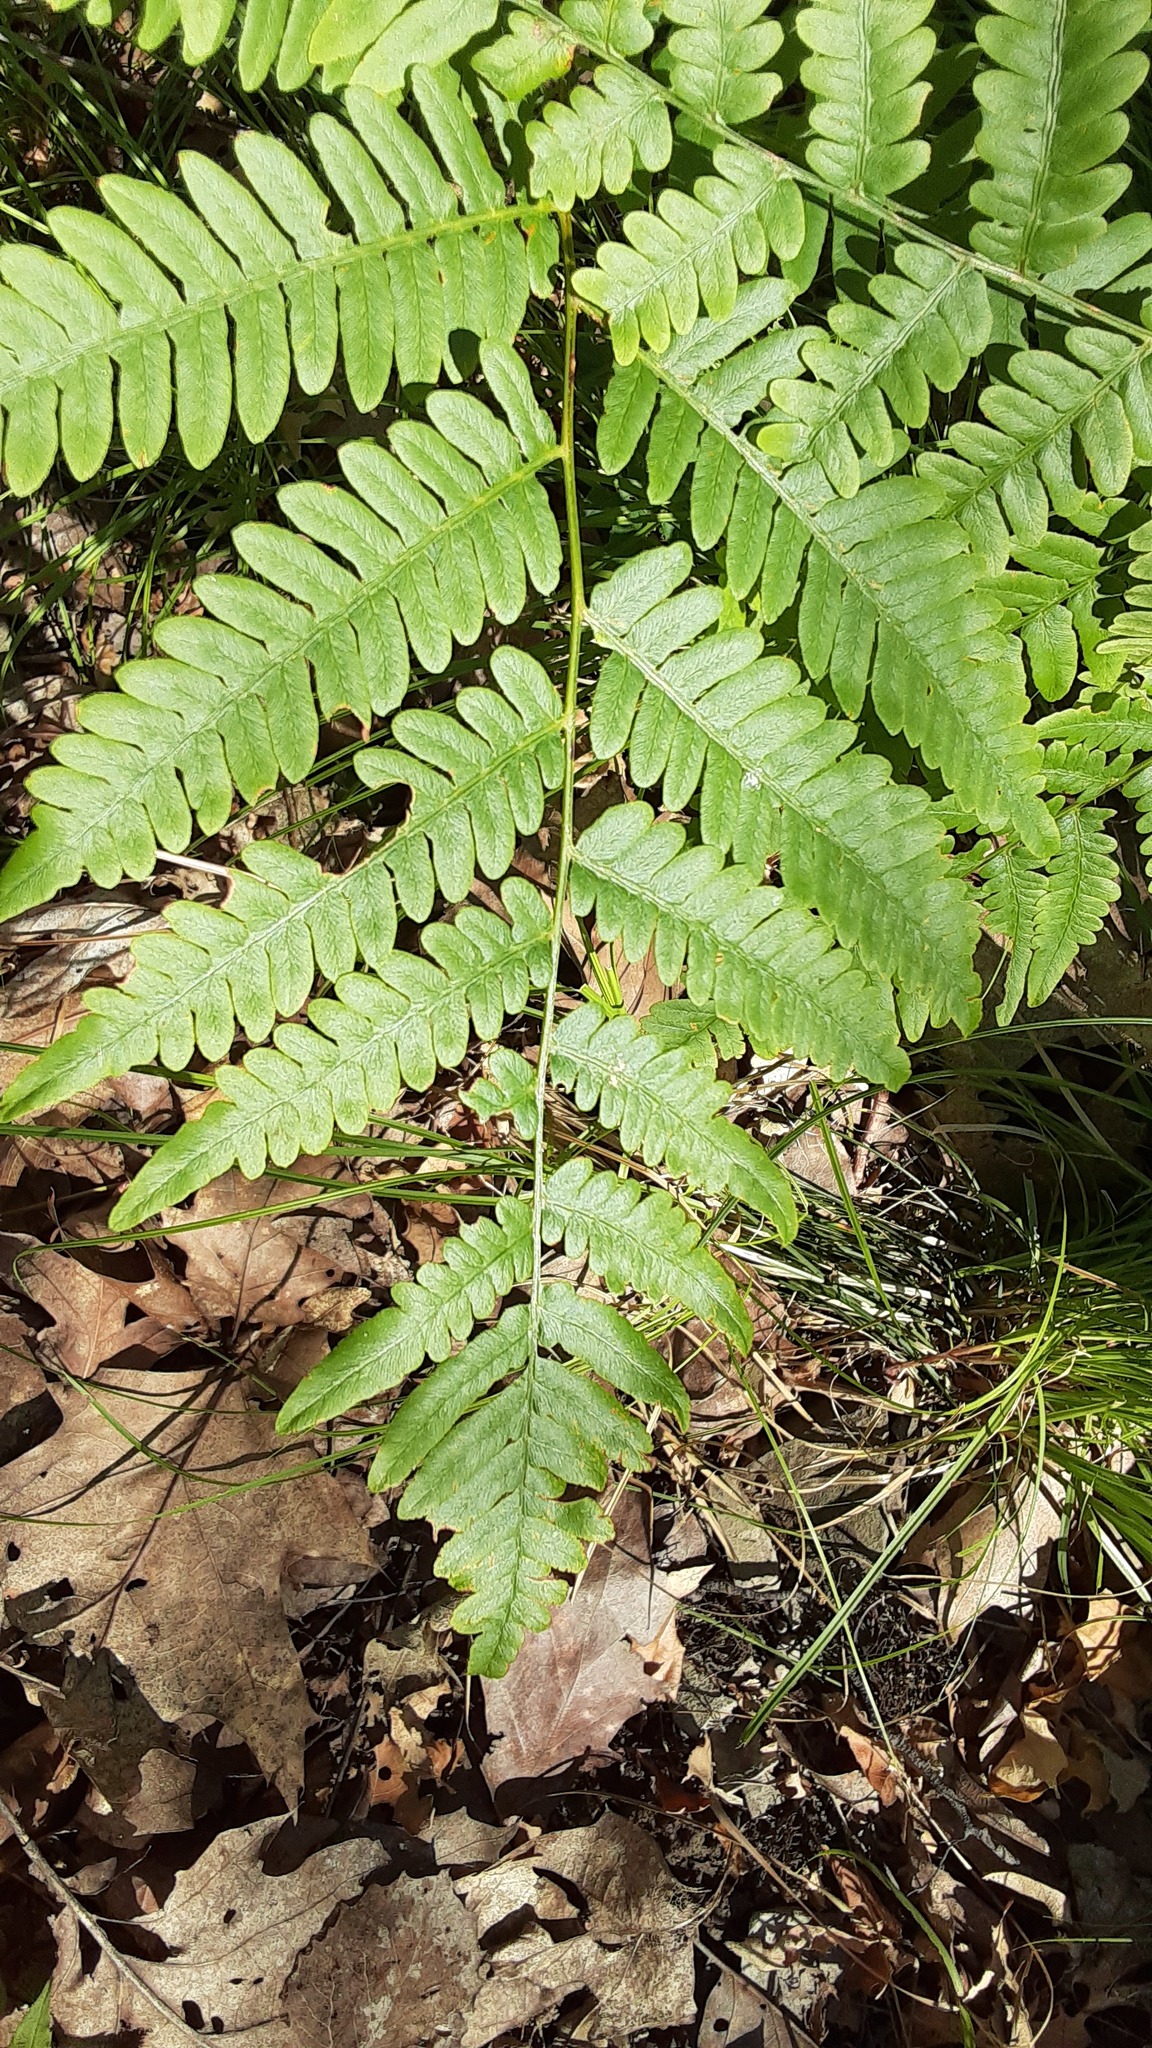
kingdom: Plantae
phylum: Tracheophyta
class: Polypodiopsida
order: Polypodiales
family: Dennstaedtiaceae
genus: Pteridium
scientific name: Pteridium aquilinum
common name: Bracken
